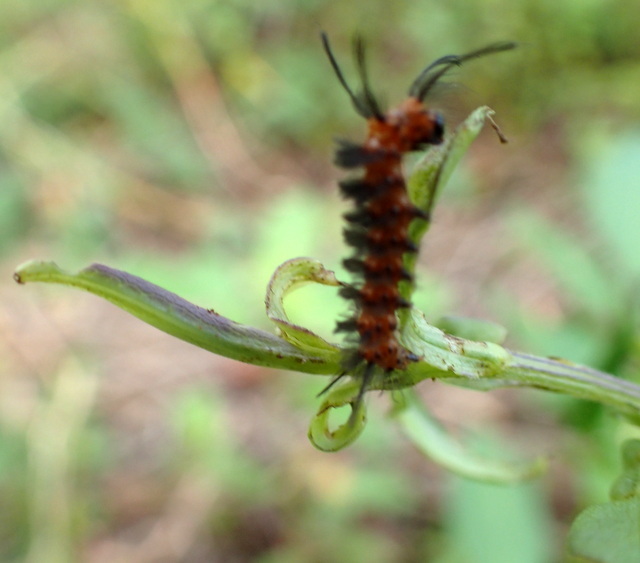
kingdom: Animalia
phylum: Arthropoda
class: Insecta
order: Lepidoptera
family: Erebidae
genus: Syntomeida
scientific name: Syntomeida epilais
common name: Polka-dot wasp moth
